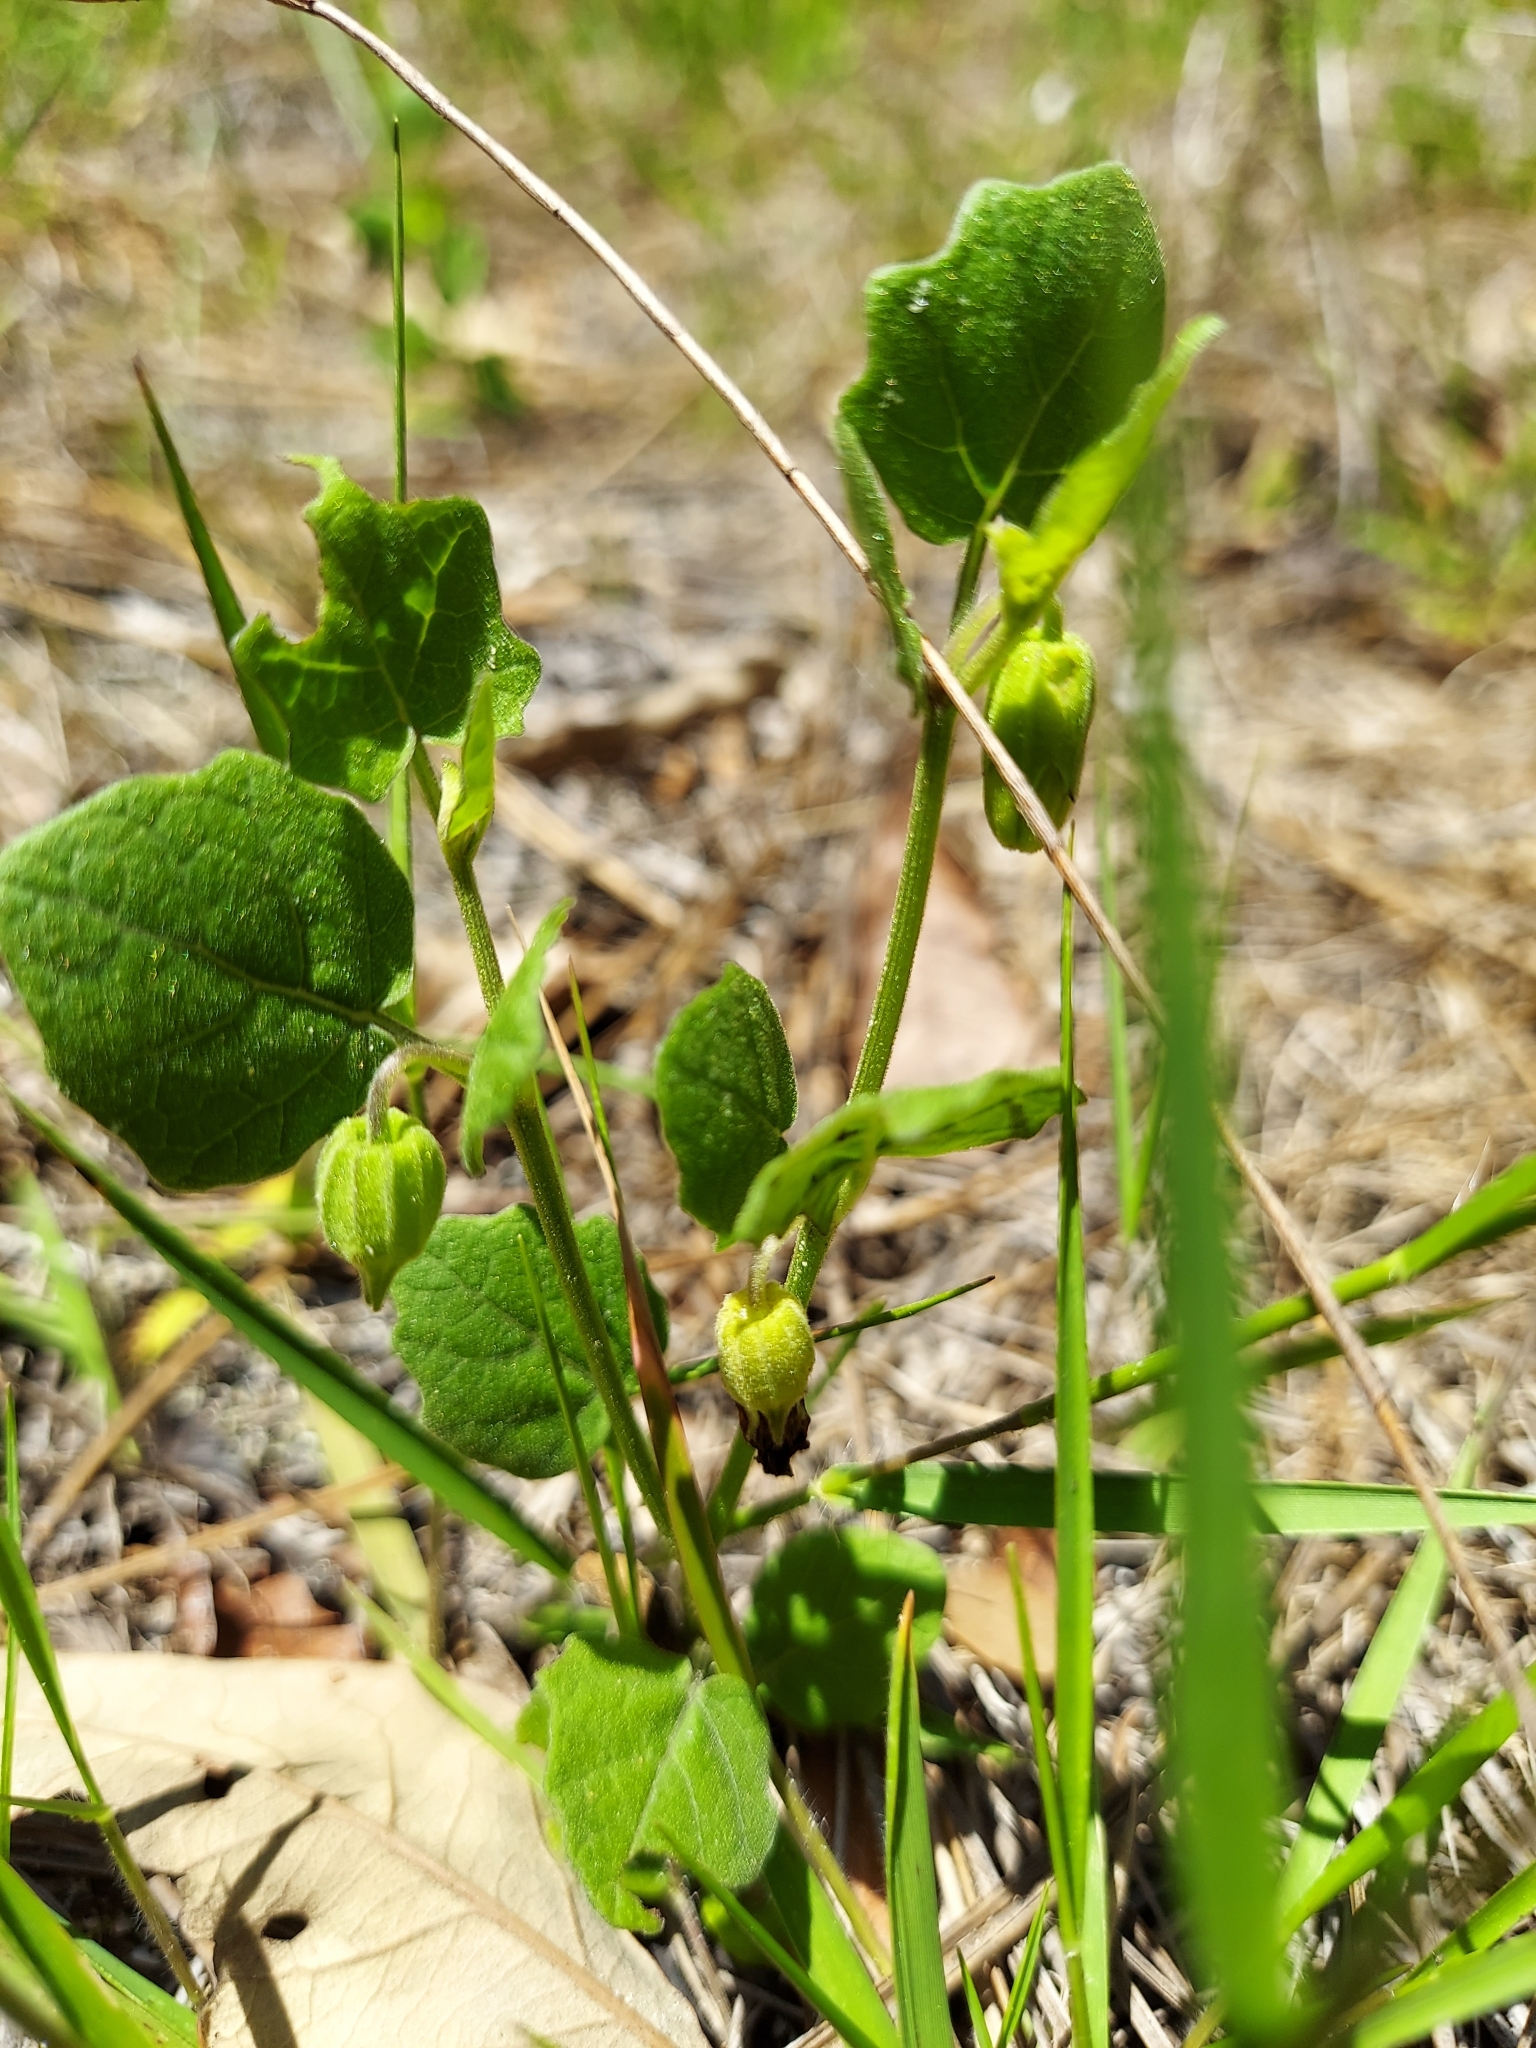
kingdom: Plantae
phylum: Tracheophyta
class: Magnoliopsida
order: Solanales
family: Solanaceae
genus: Physalis
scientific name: Physalis arenicola
